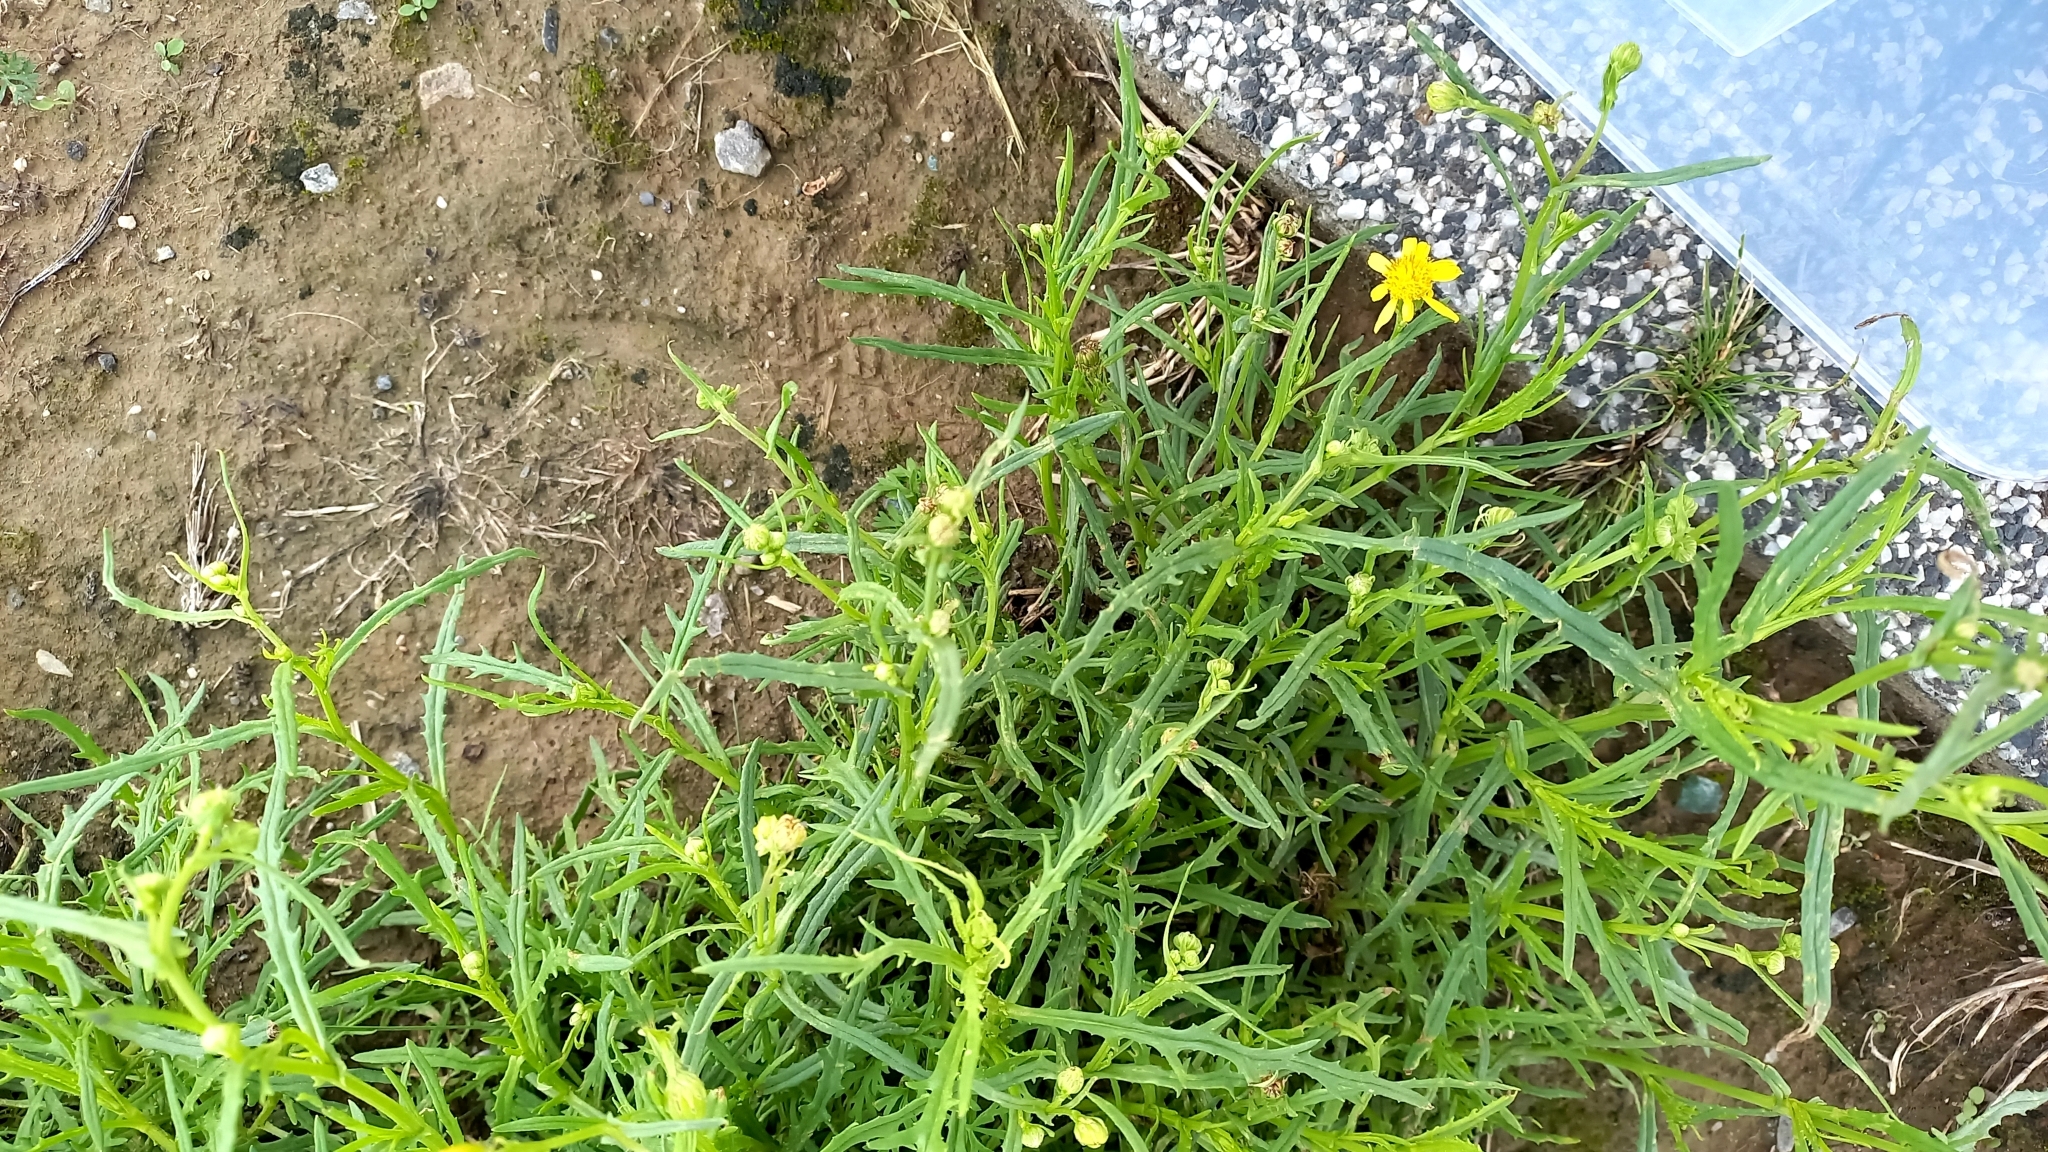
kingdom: Plantae
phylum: Tracheophyta
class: Magnoliopsida
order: Asterales
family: Asteraceae
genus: Senecio
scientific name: Senecio inaequidens
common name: Narrow-leaved ragwort
